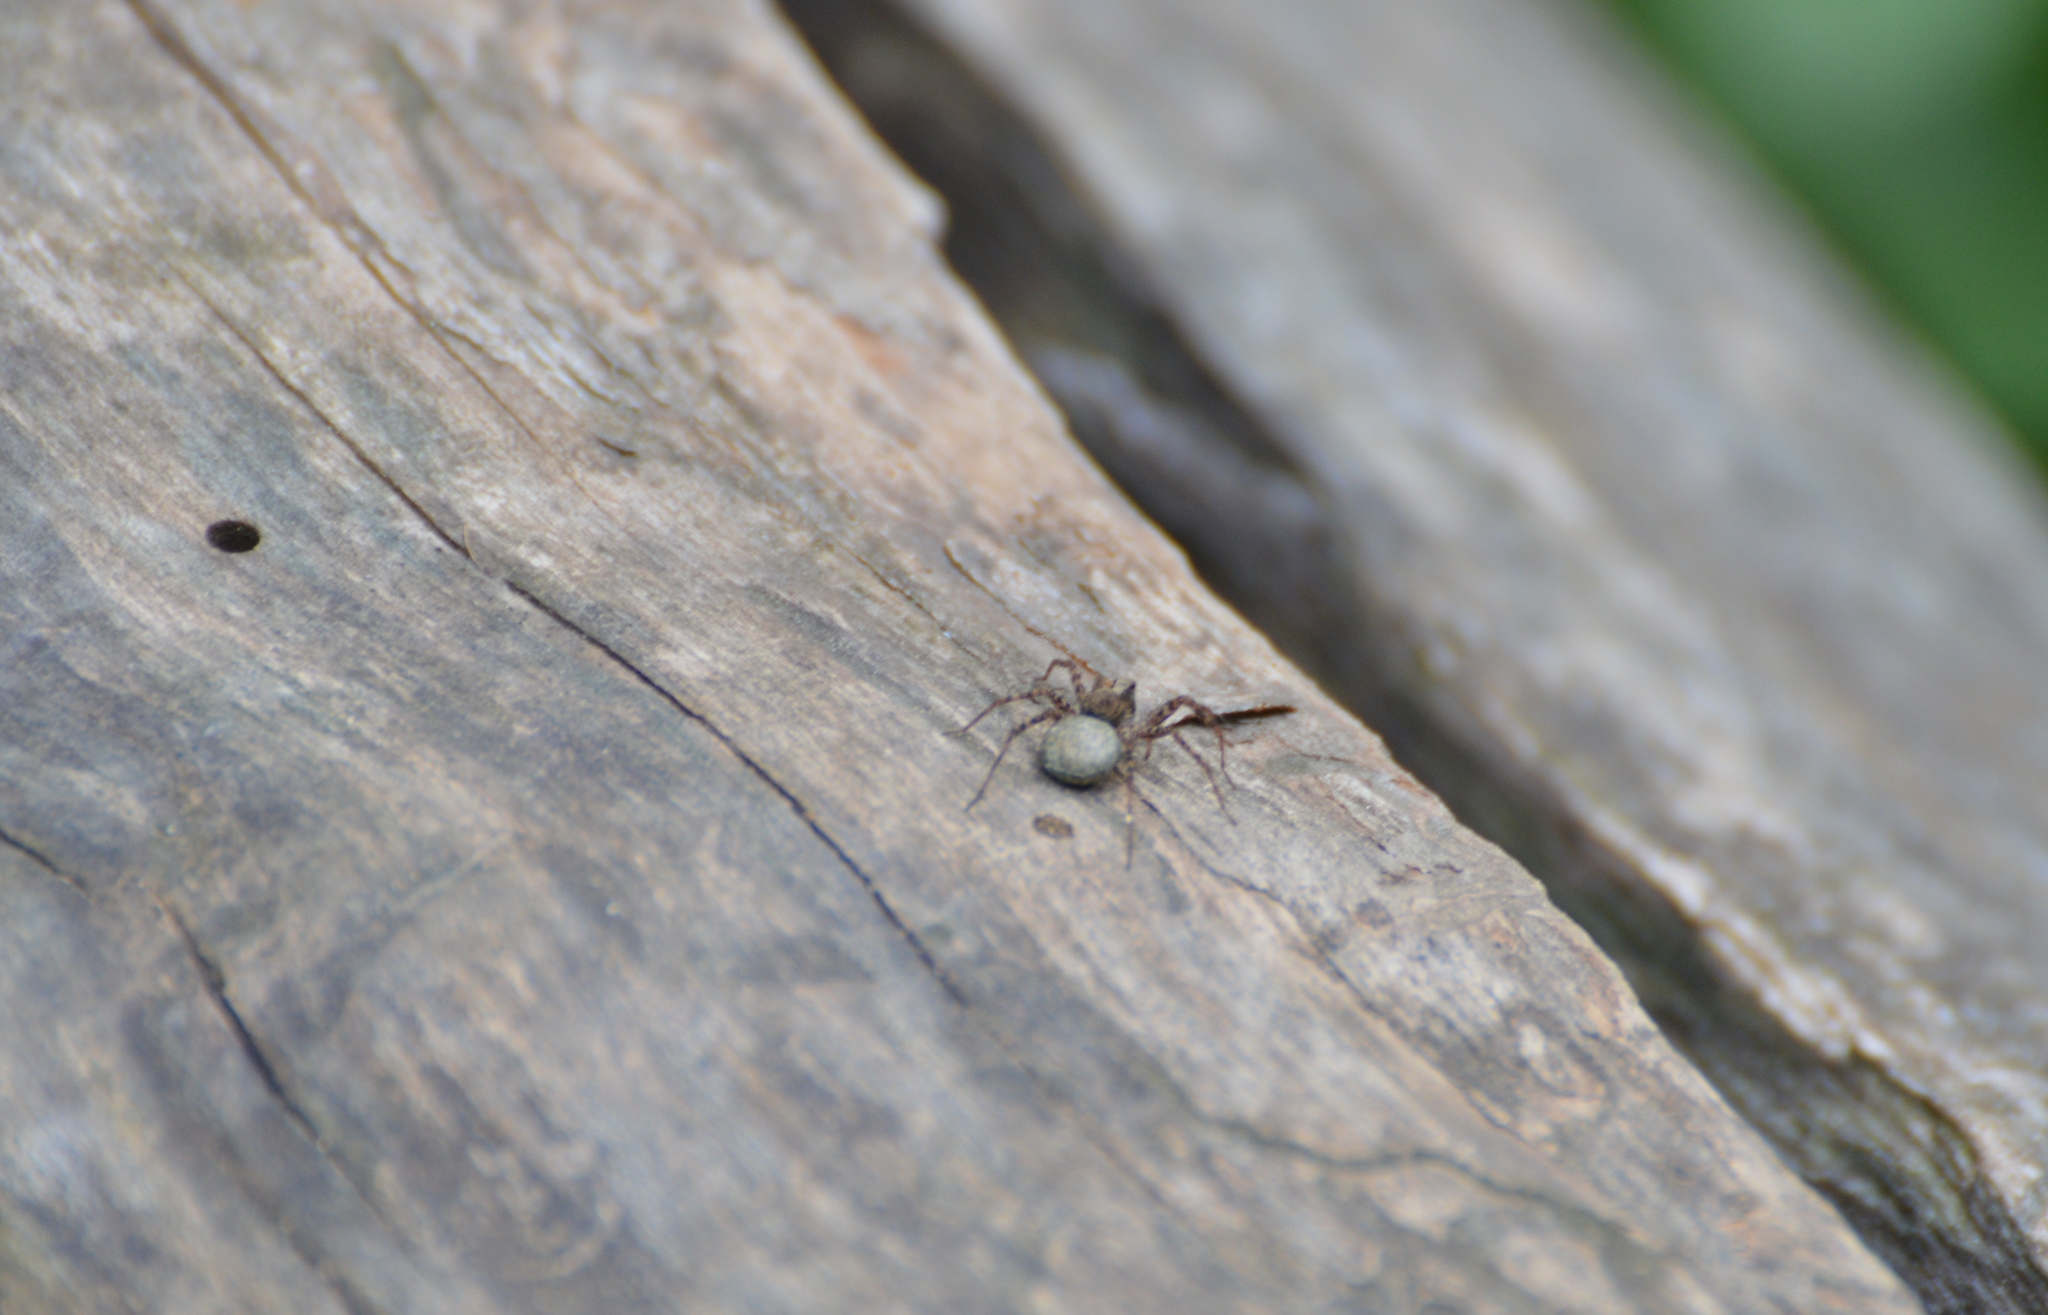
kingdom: Animalia
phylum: Arthropoda
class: Arachnida
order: Araneae
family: Lycosidae
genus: Pardosa
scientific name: Pardosa
